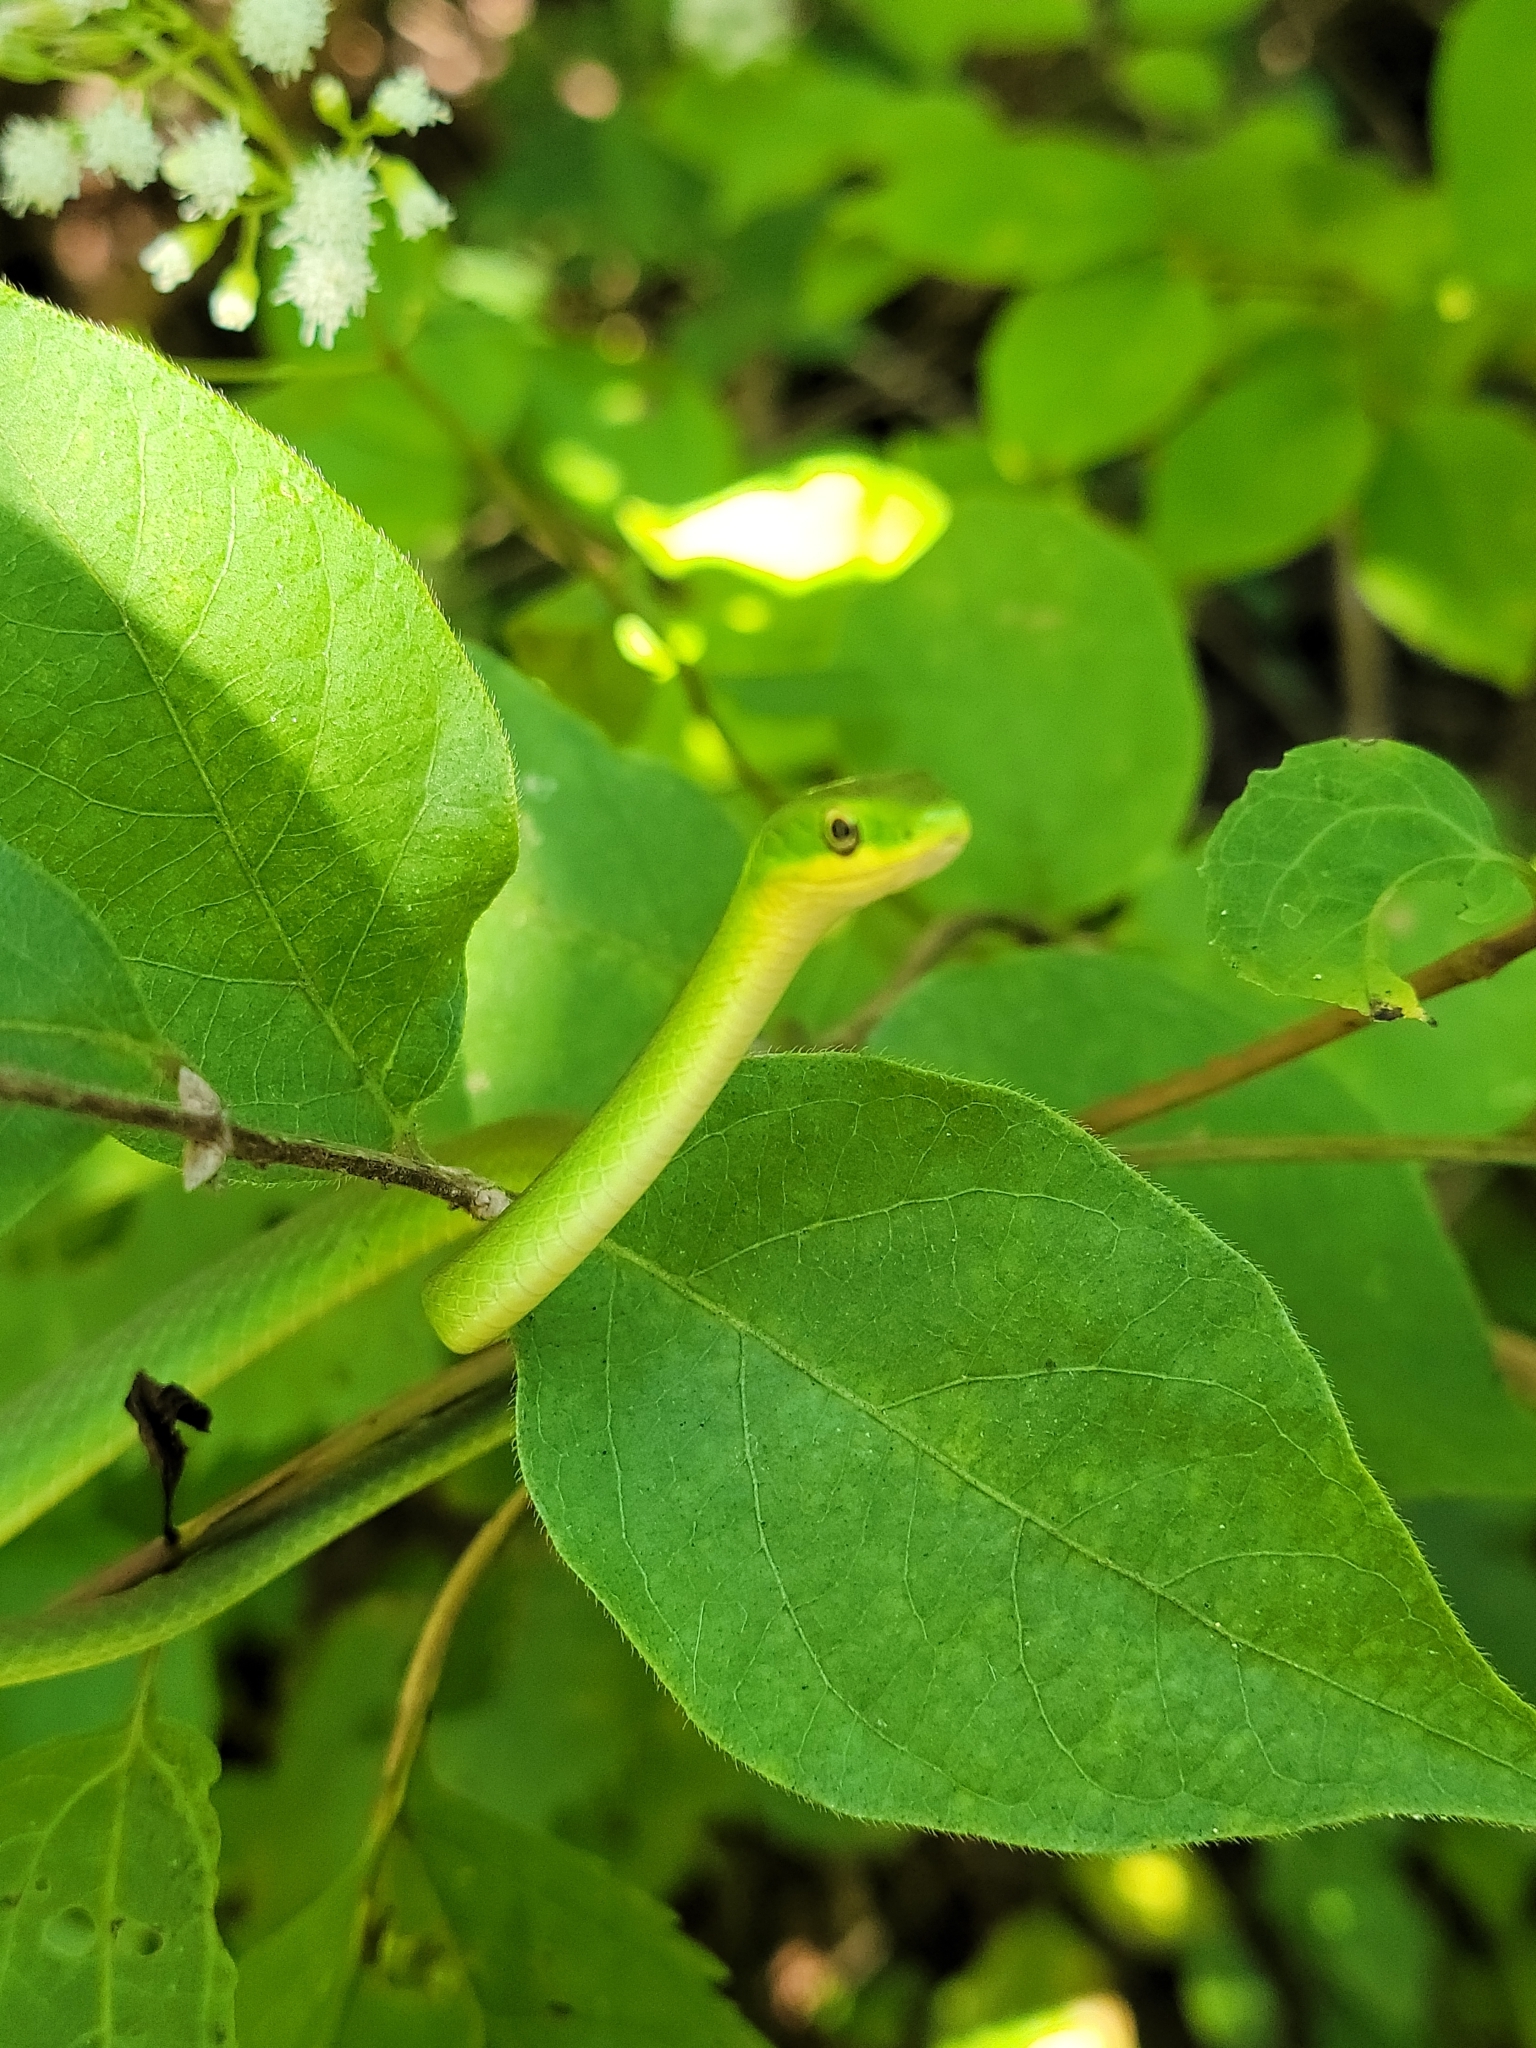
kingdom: Animalia
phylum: Chordata
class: Squamata
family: Colubridae
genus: Opheodrys
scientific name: Opheodrys aestivus
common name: Rough greensnake
